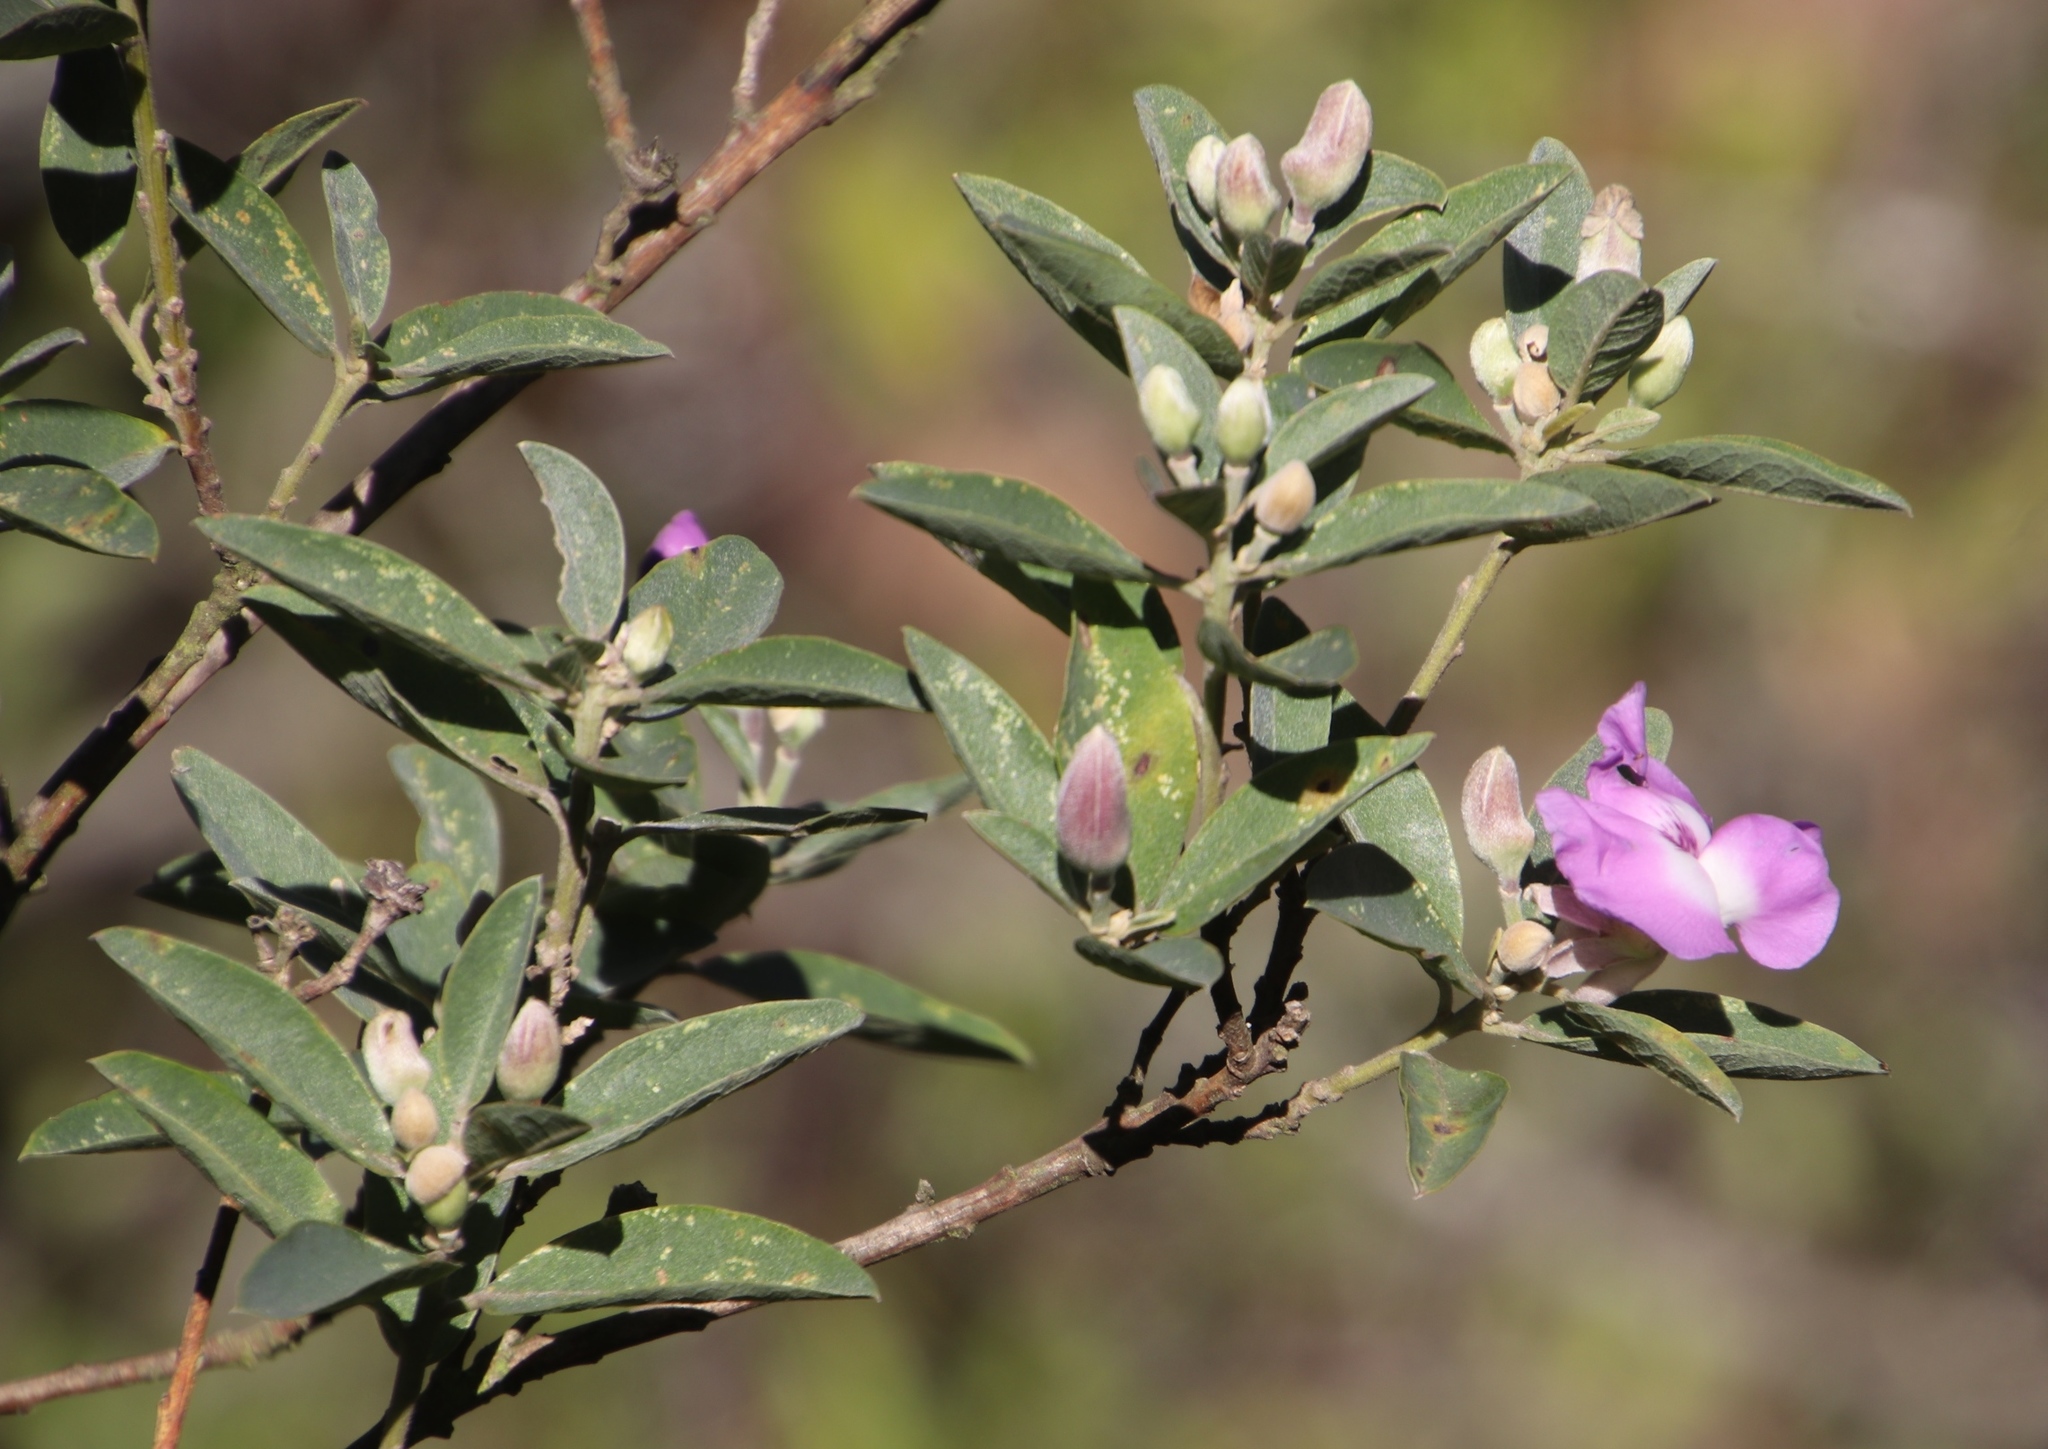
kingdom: Plantae
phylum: Tracheophyta
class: Magnoliopsida
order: Fabales
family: Fabaceae
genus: Podalyria
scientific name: Podalyria calyptrata
